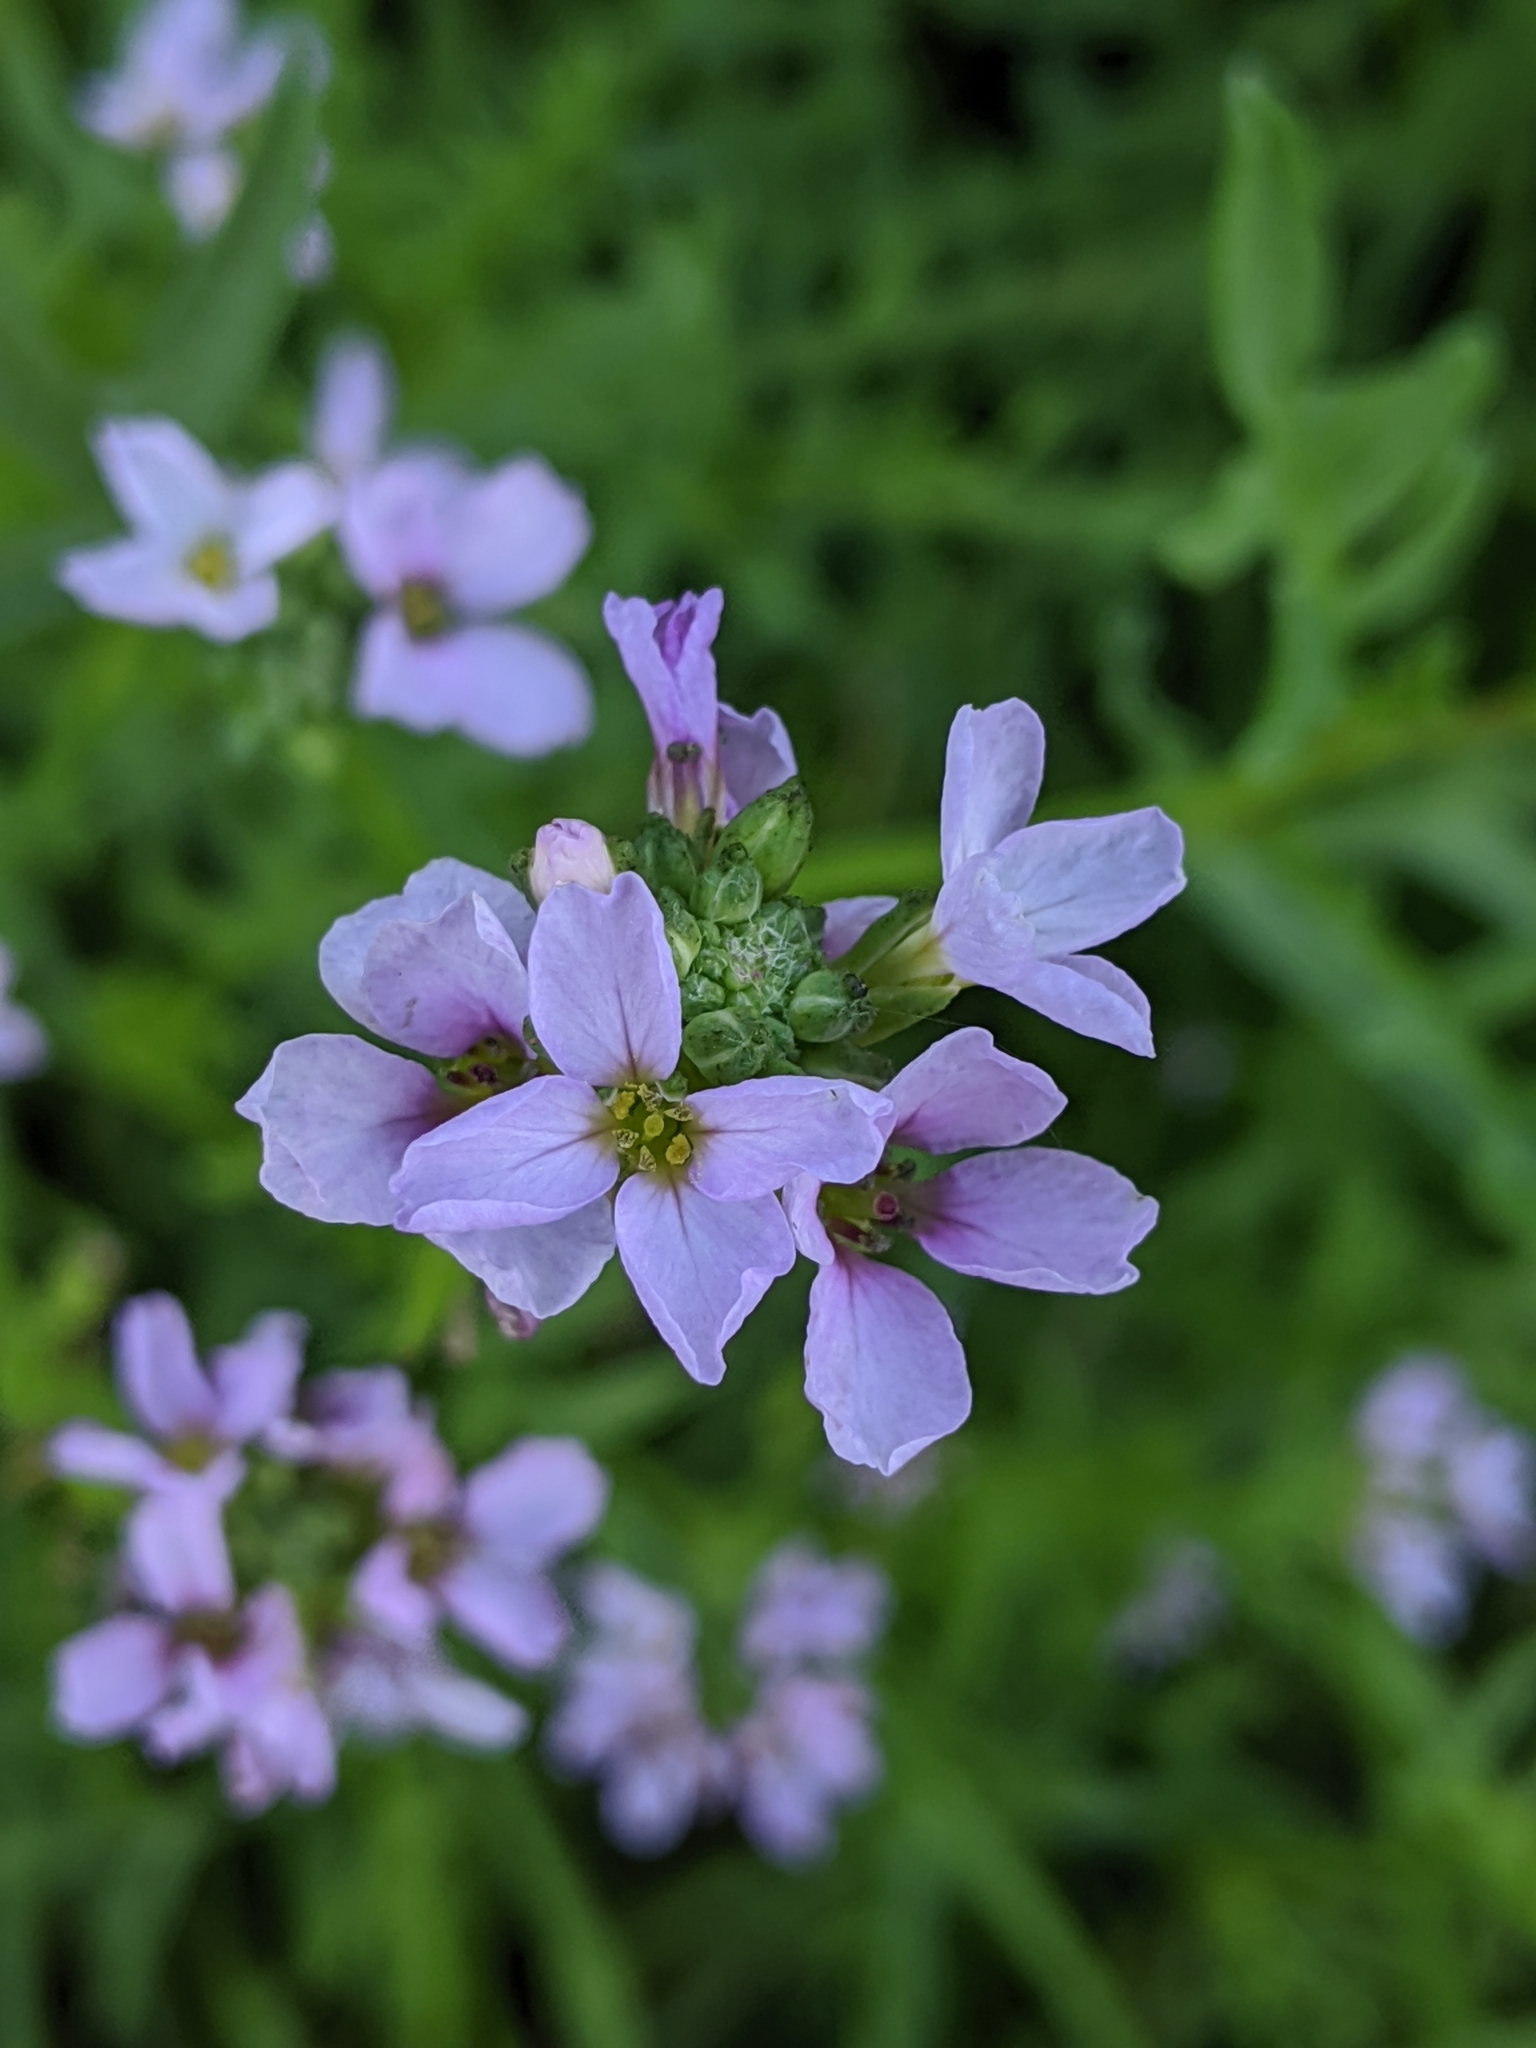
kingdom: Plantae
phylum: Tracheophyta
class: Magnoliopsida
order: Brassicales
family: Brassicaceae
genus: Cakile
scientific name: Cakile maritima
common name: Sea rocket
